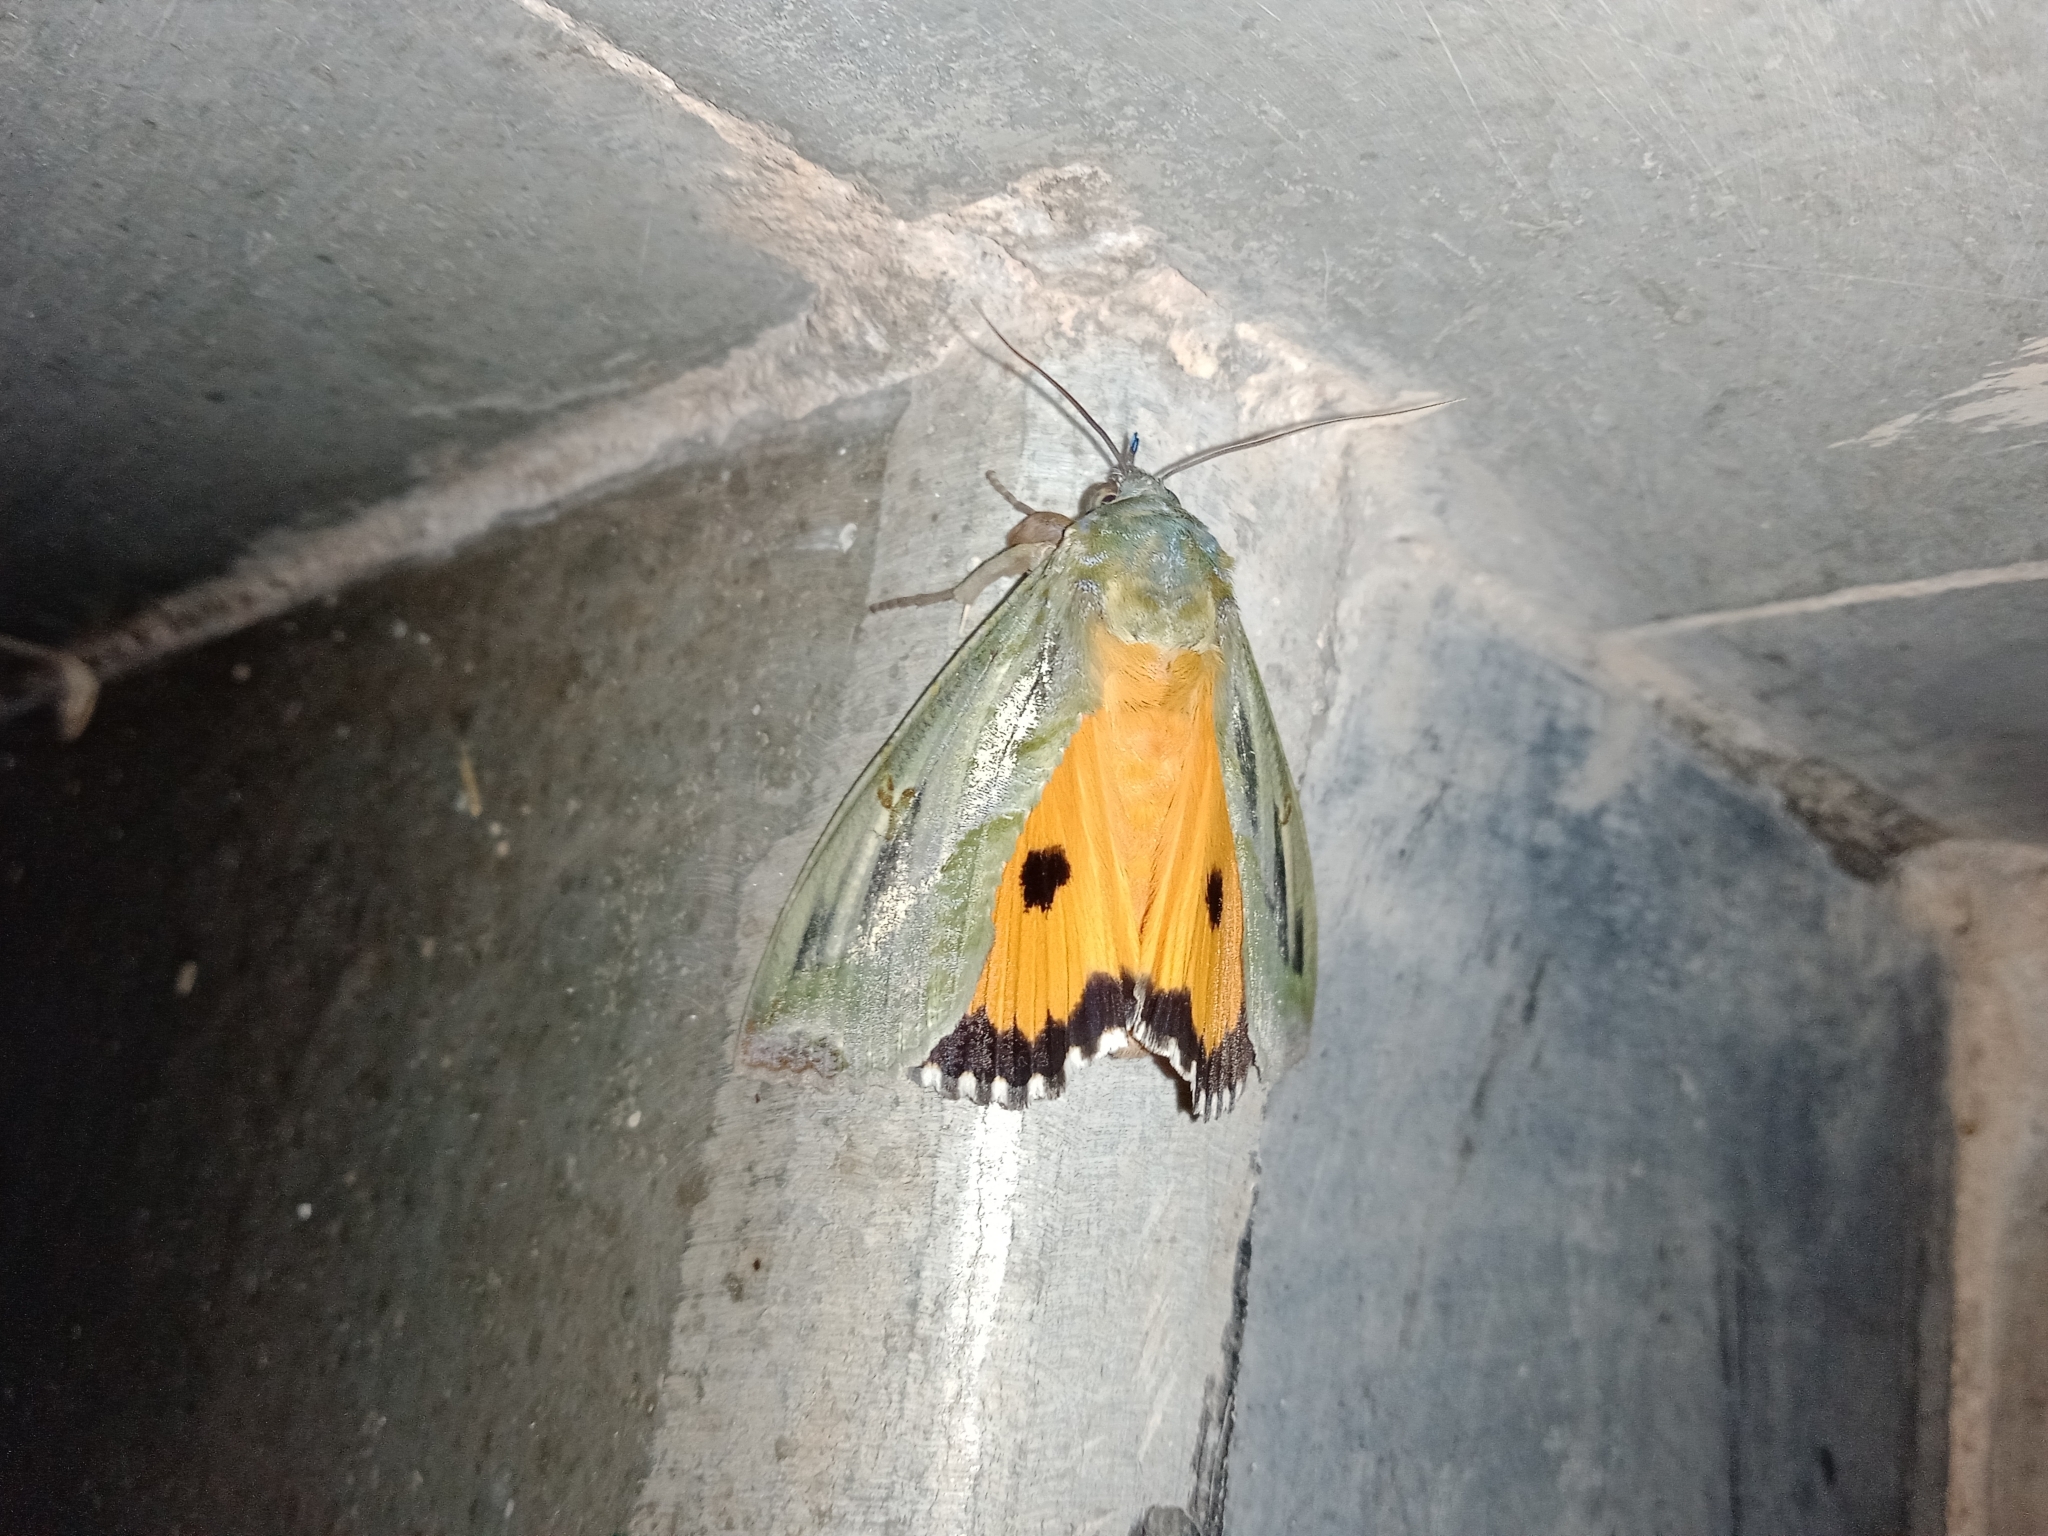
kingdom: Animalia
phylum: Arthropoda
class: Insecta
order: Lepidoptera
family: Erebidae
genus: Eudocima
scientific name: Eudocima materna
